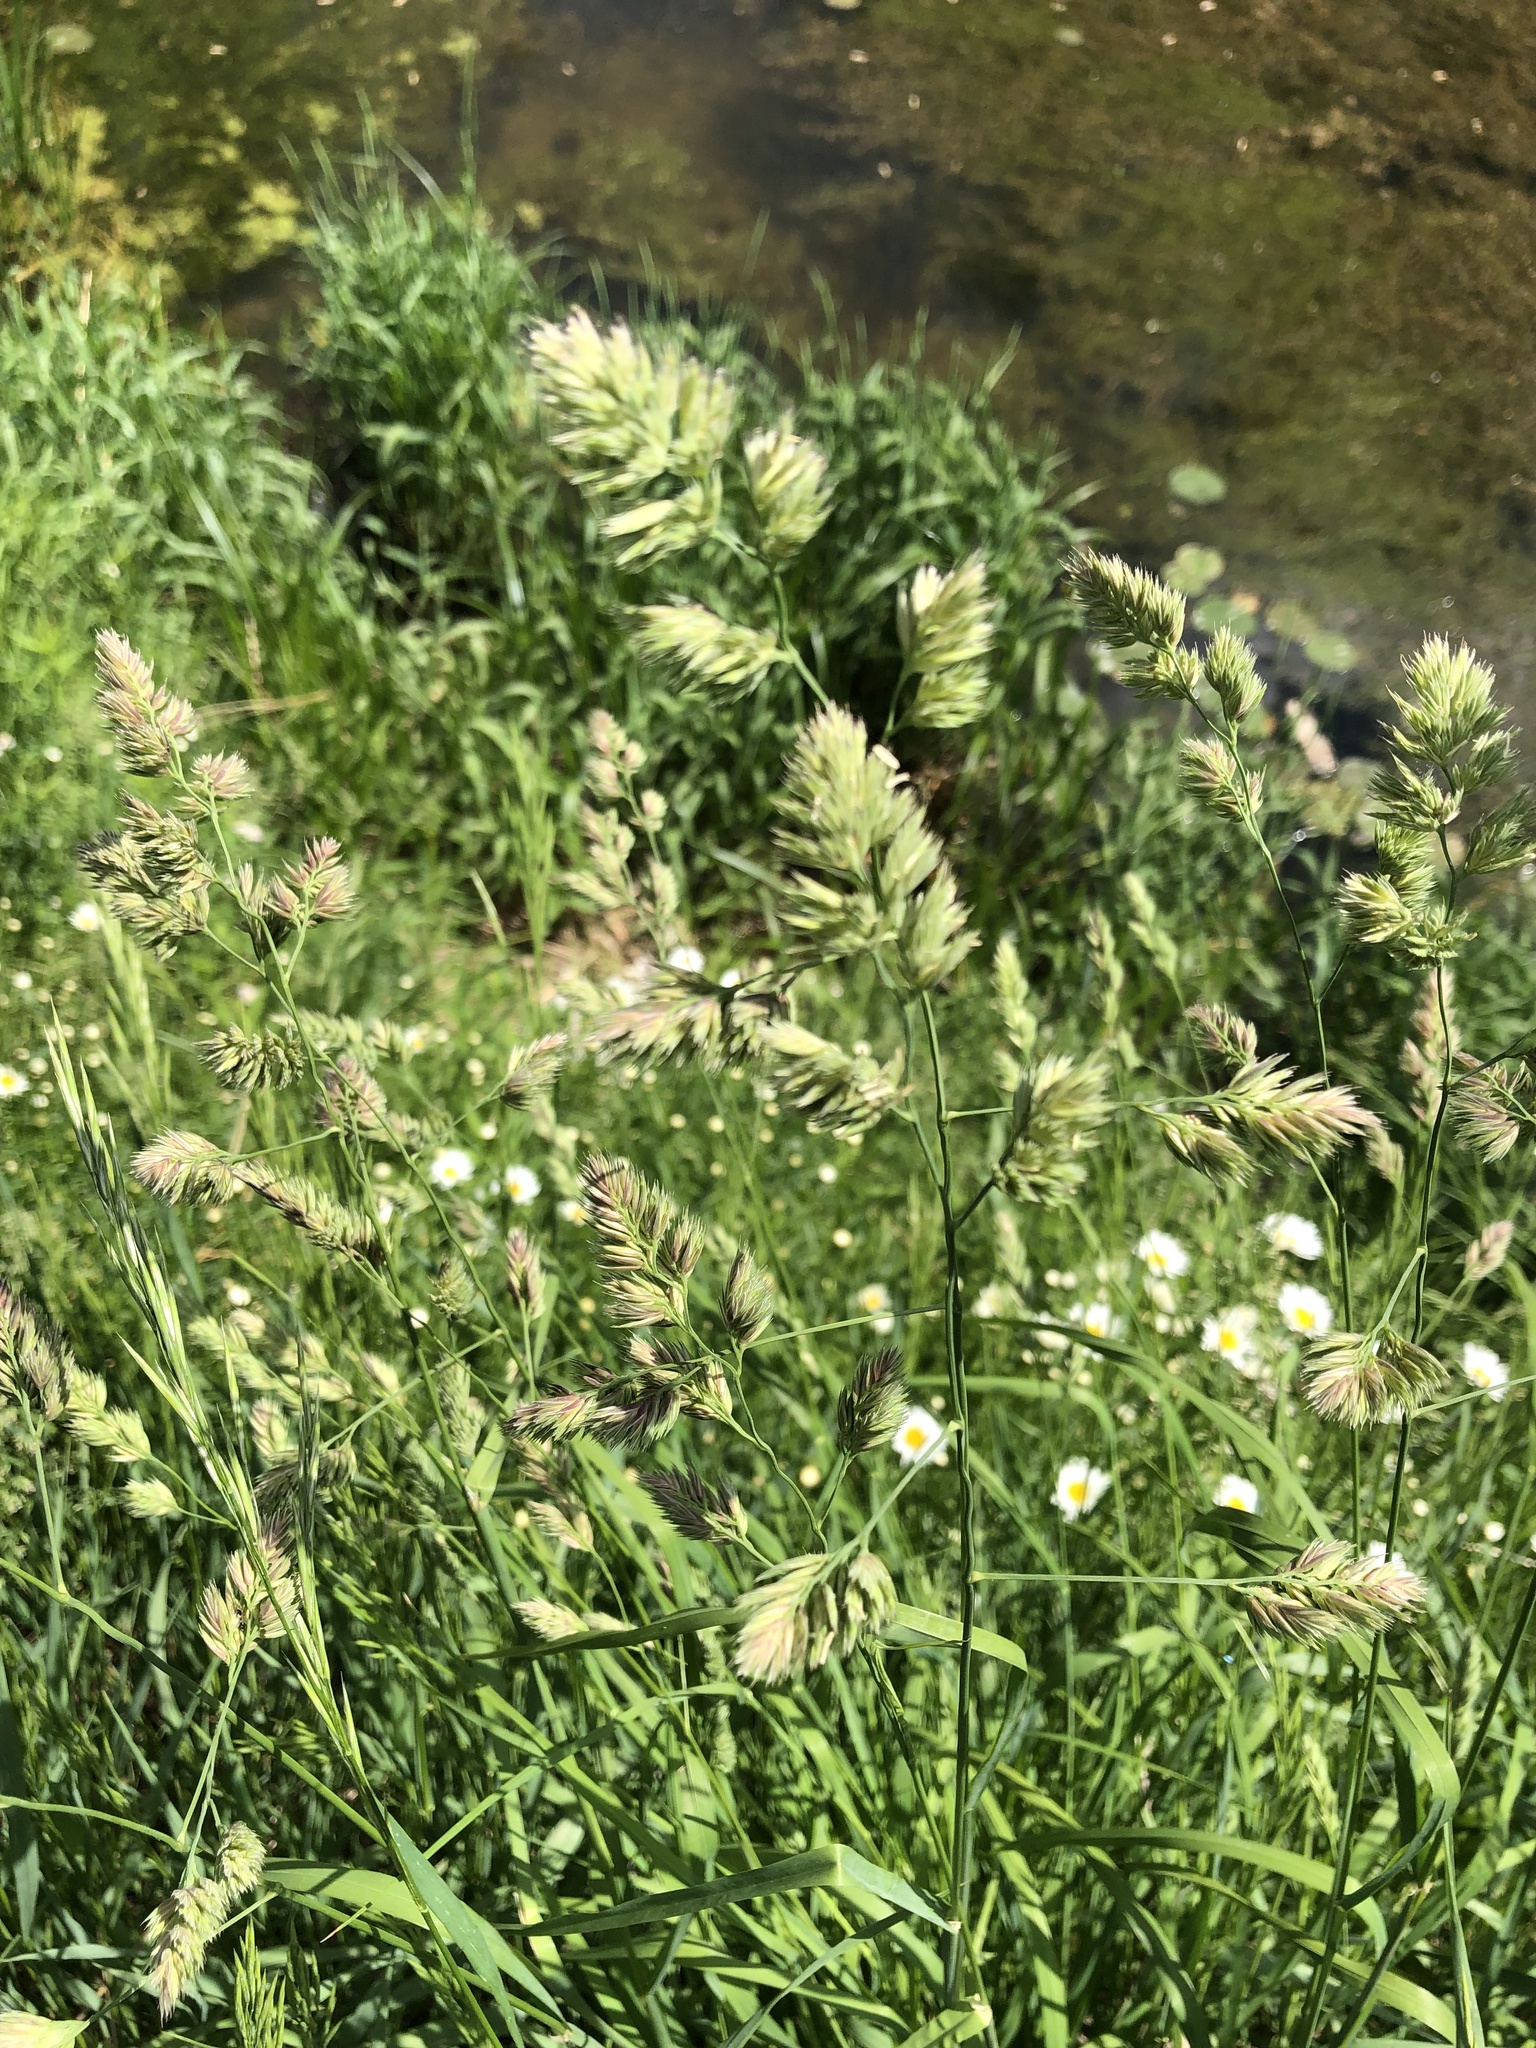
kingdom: Plantae
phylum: Tracheophyta
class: Liliopsida
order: Poales
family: Poaceae
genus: Dactylis
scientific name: Dactylis glomerata
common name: Orchardgrass
